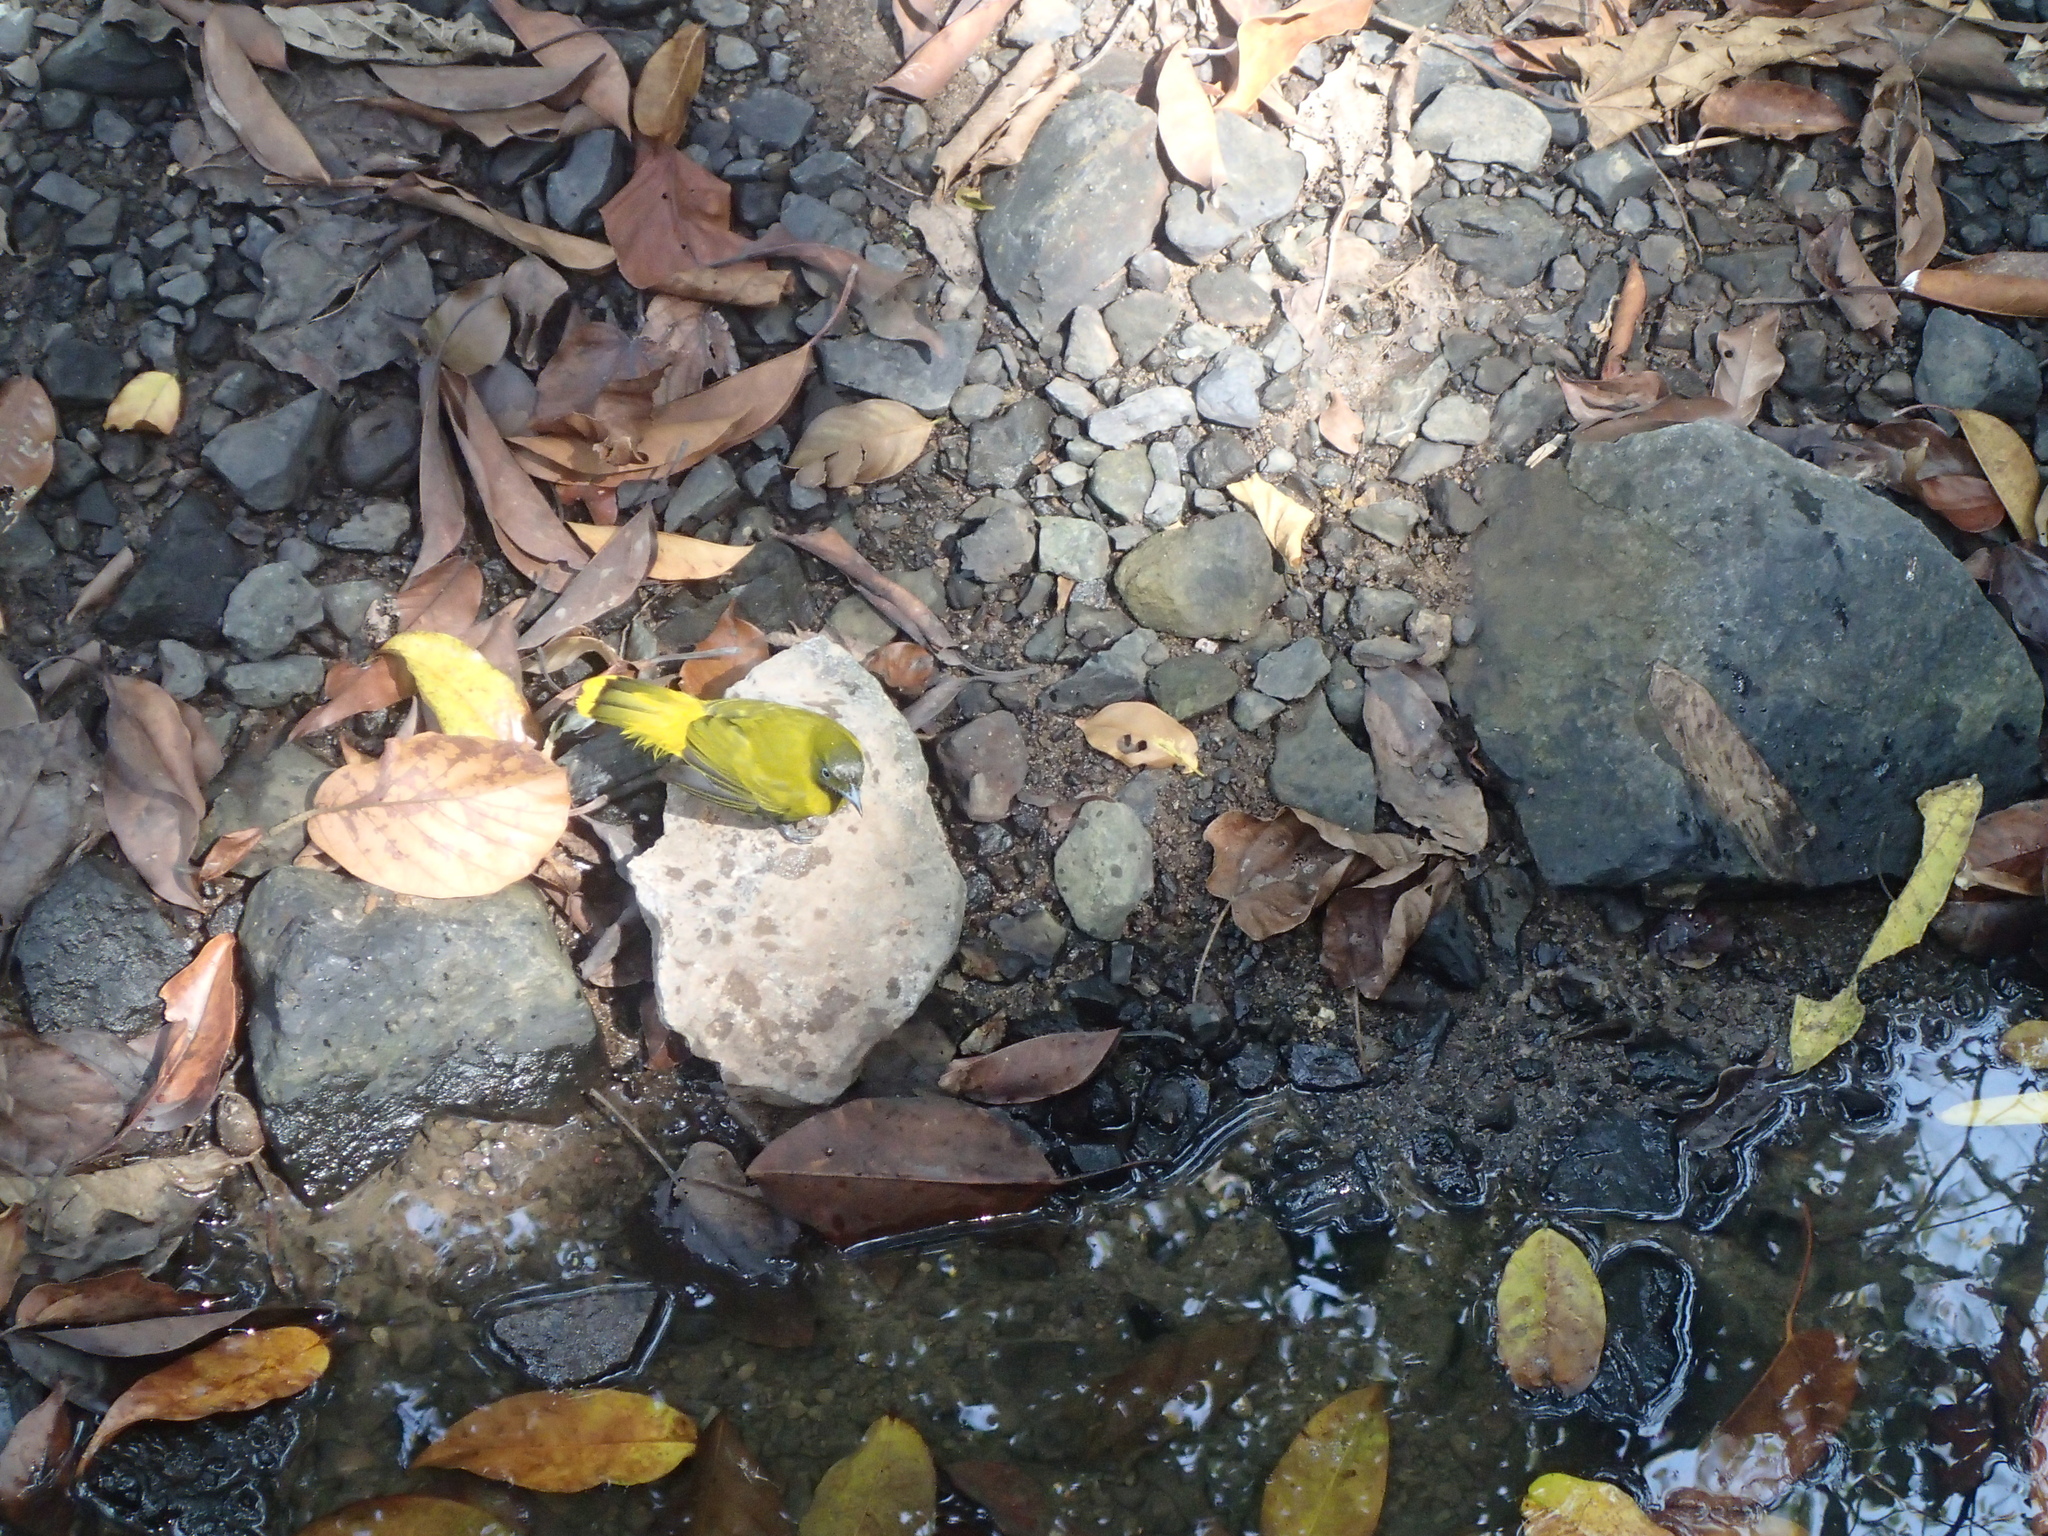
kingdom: Animalia
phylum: Chordata
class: Aves
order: Passeriformes
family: Pycnonotidae
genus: Microtarsus
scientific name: Microtarsus
